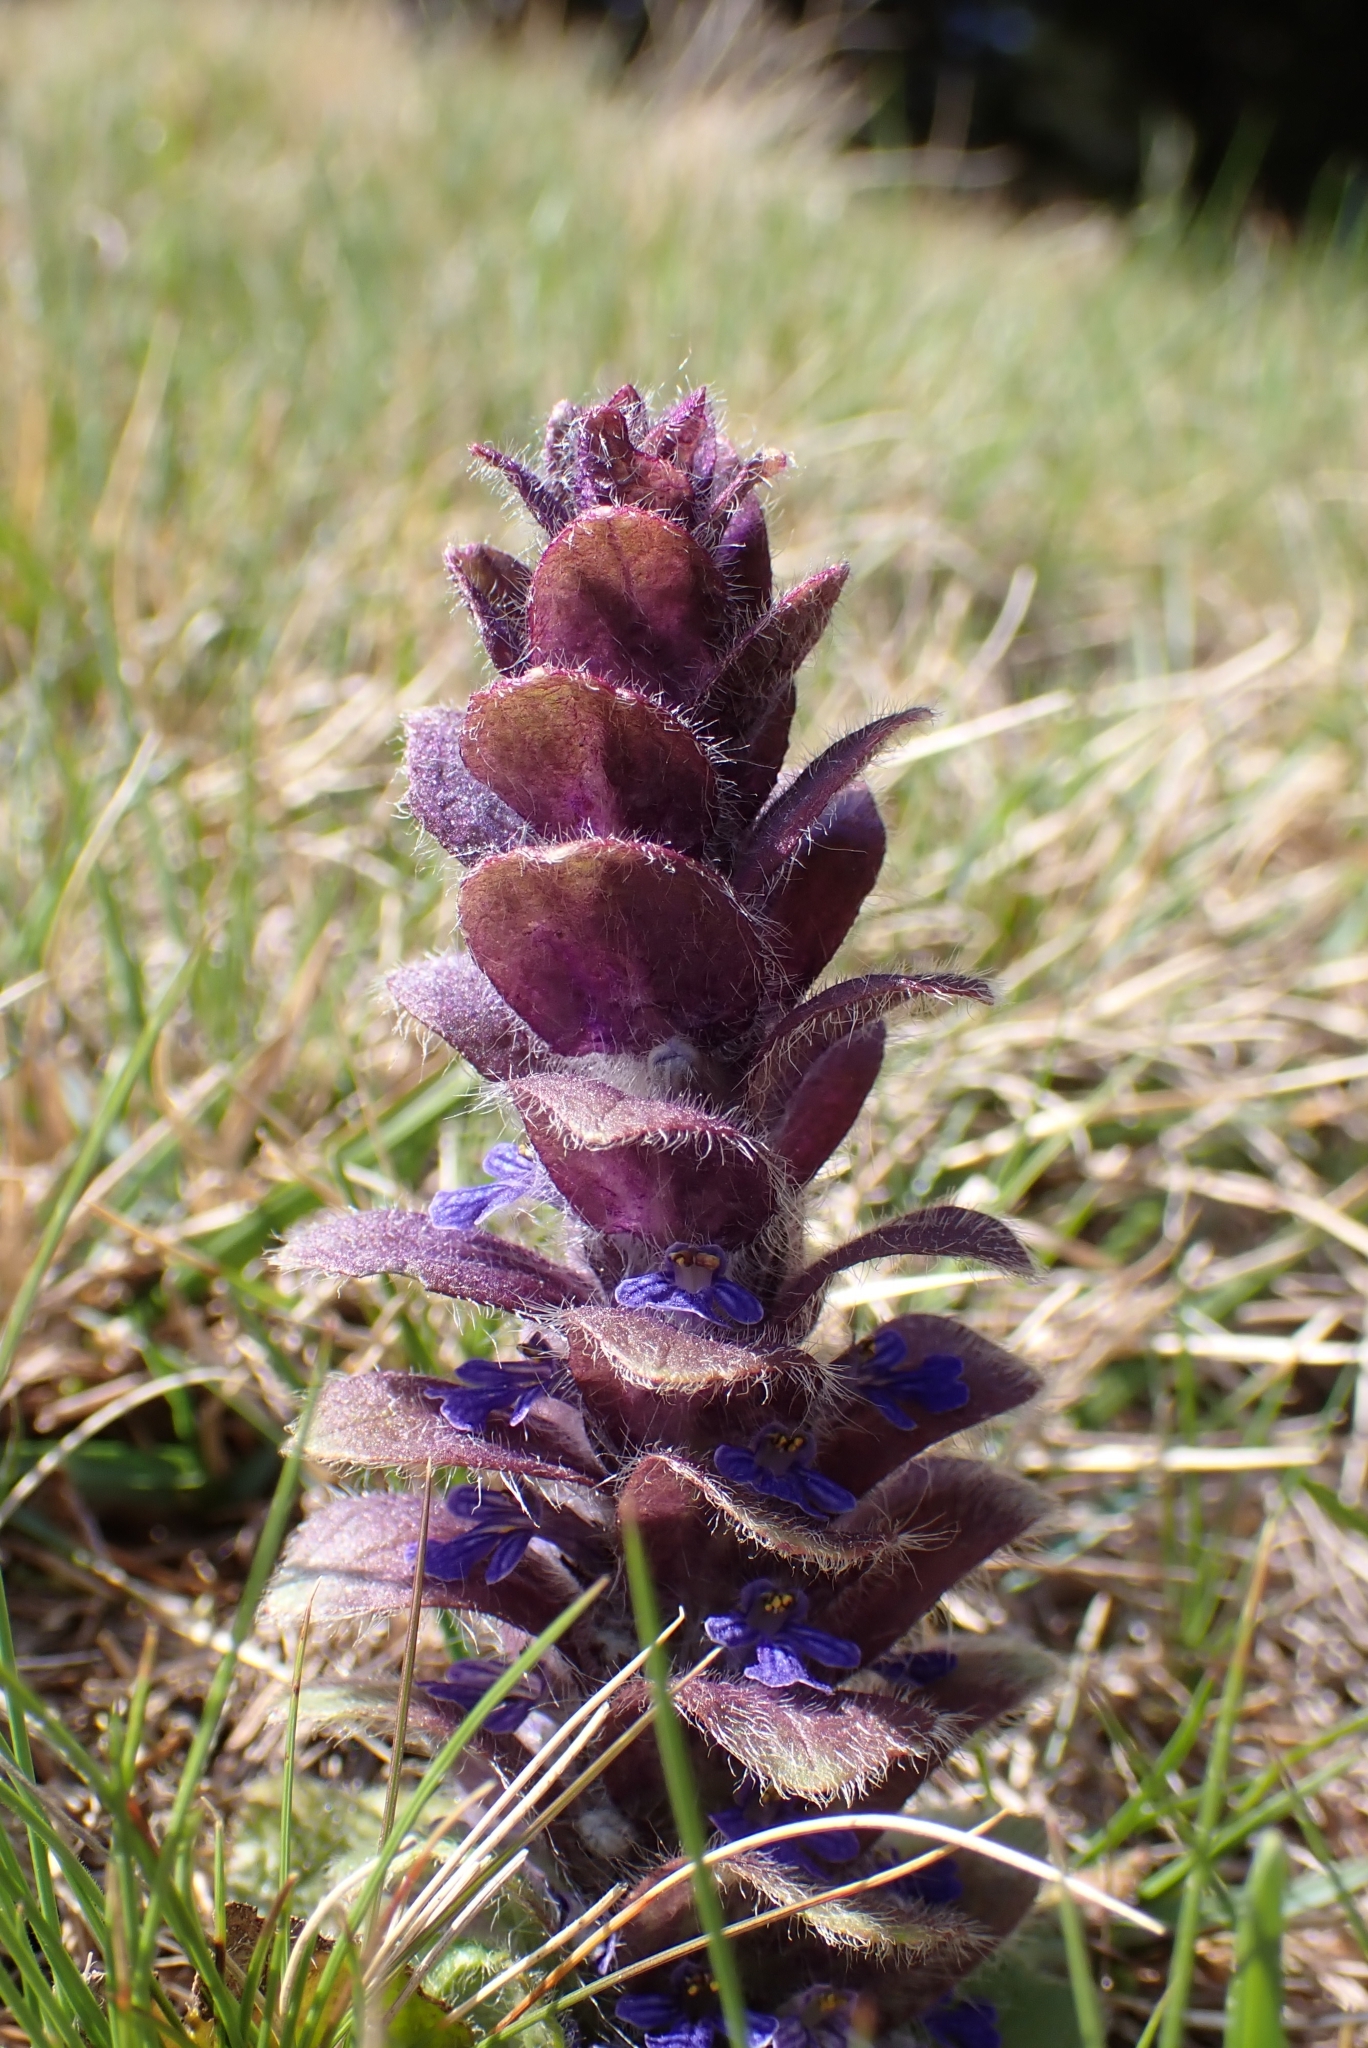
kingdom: Plantae
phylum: Tracheophyta
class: Magnoliopsida
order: Lamiales
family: Lamiaceae
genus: Ajuga
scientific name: Ajuga pyramidalis
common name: Pyramid bugle
